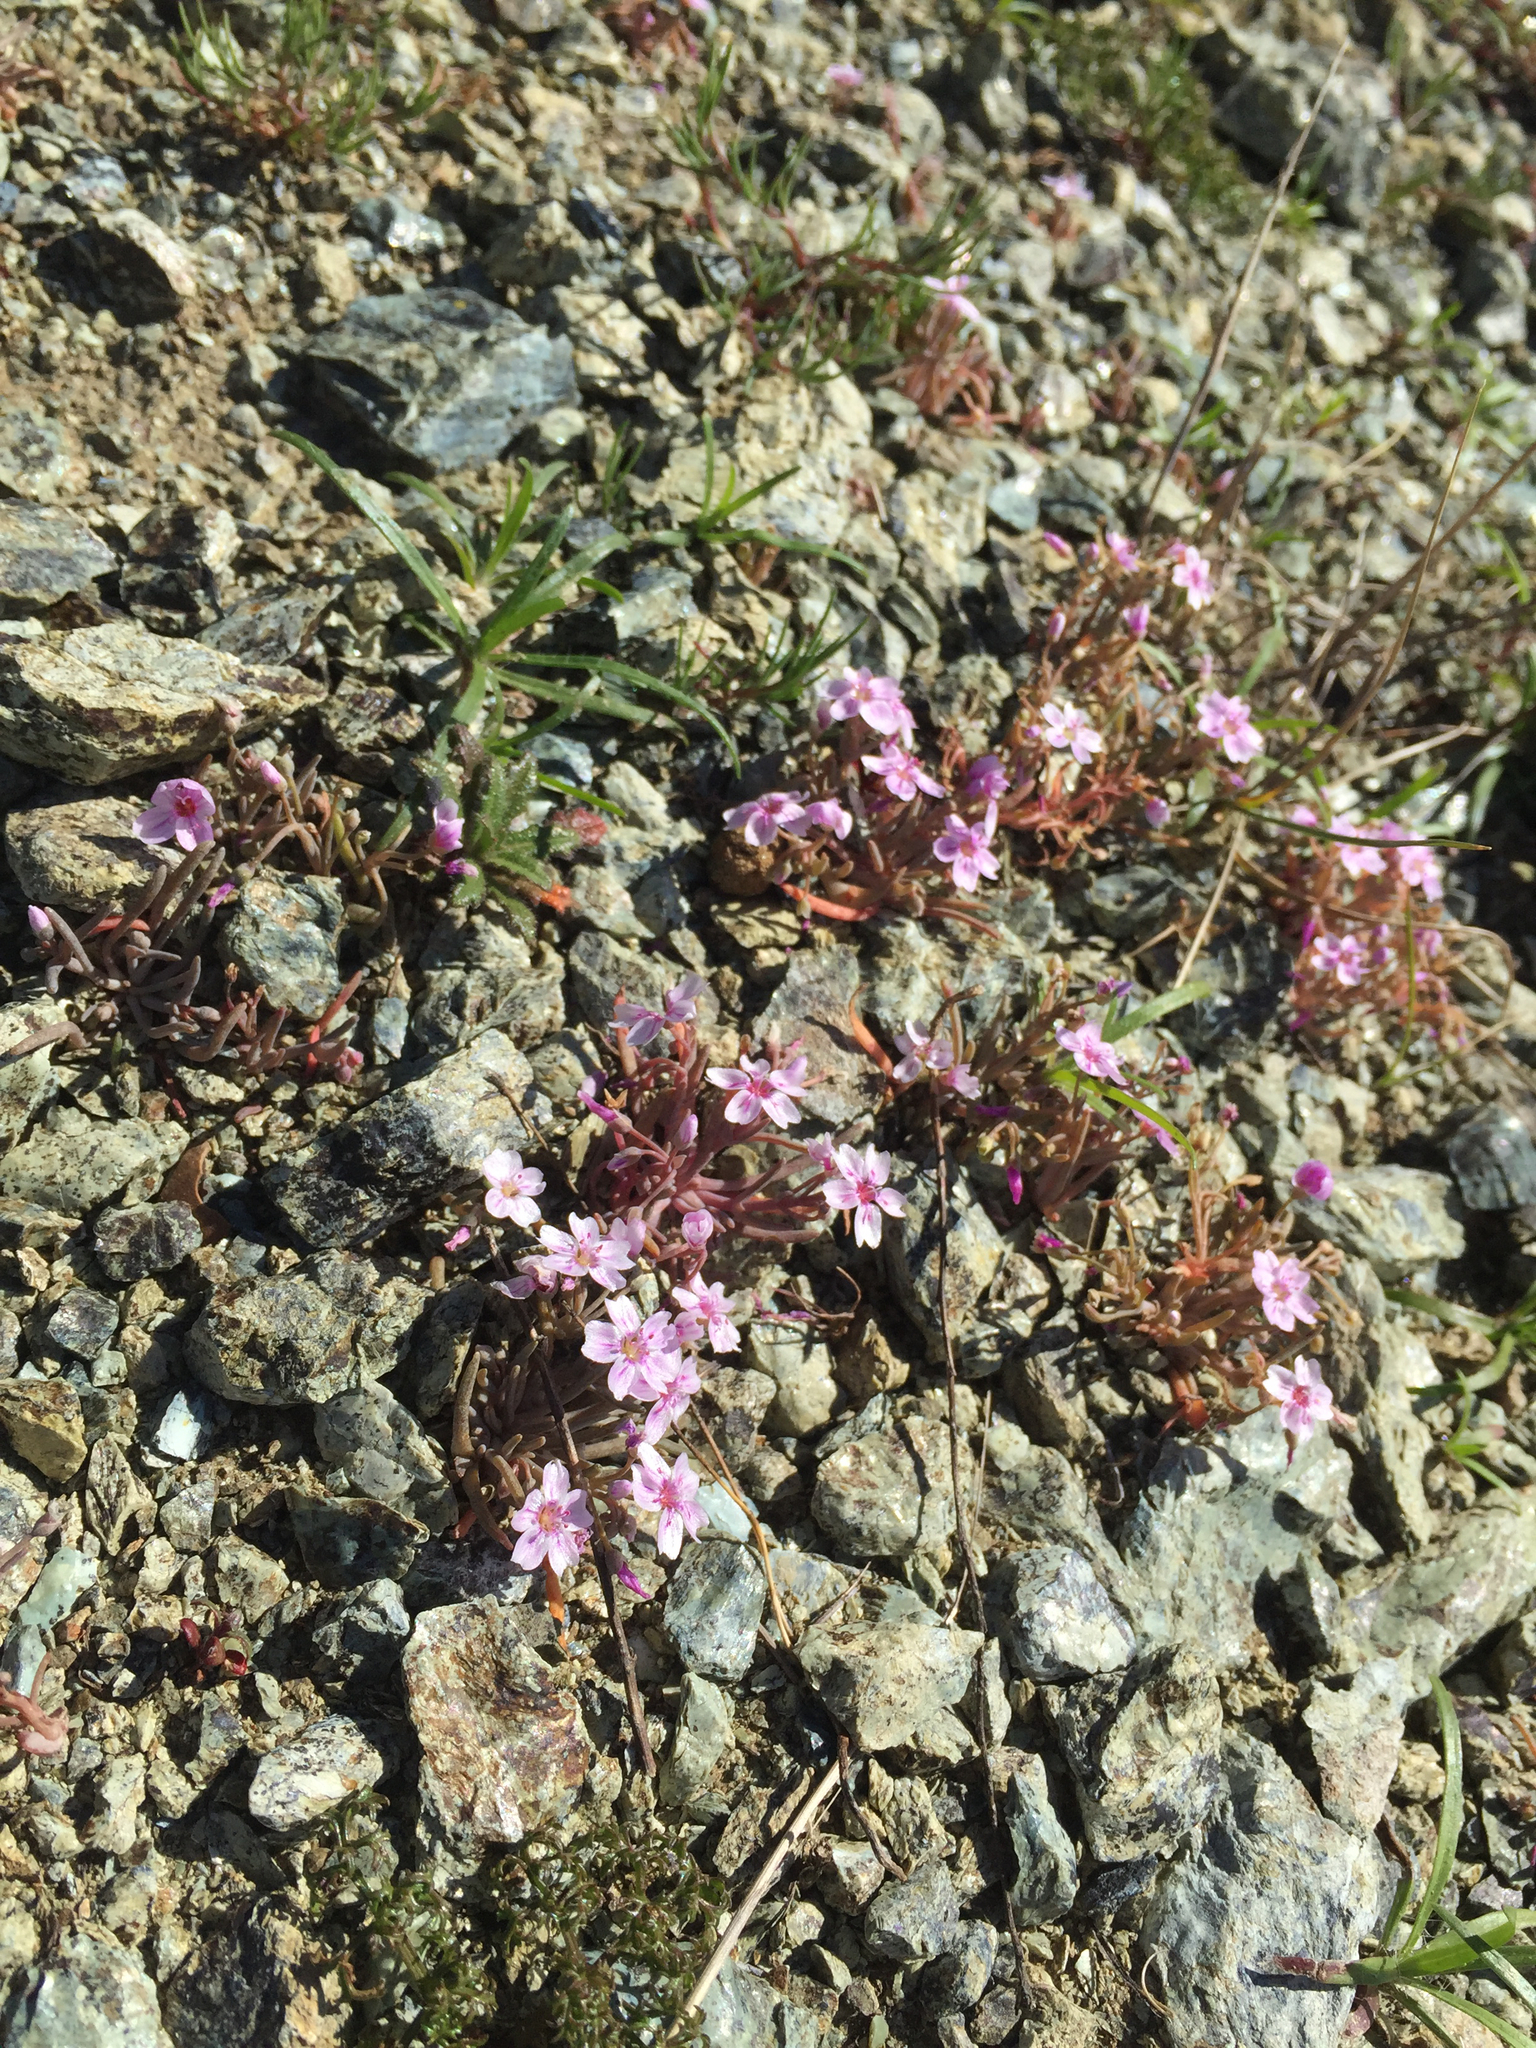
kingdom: Plantae
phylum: Tracheophyta
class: Magnoliopsida
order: Caryophyllales
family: Montiaceae
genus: Claytonia
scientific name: Claytonia exigua
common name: Pale spring beauty
